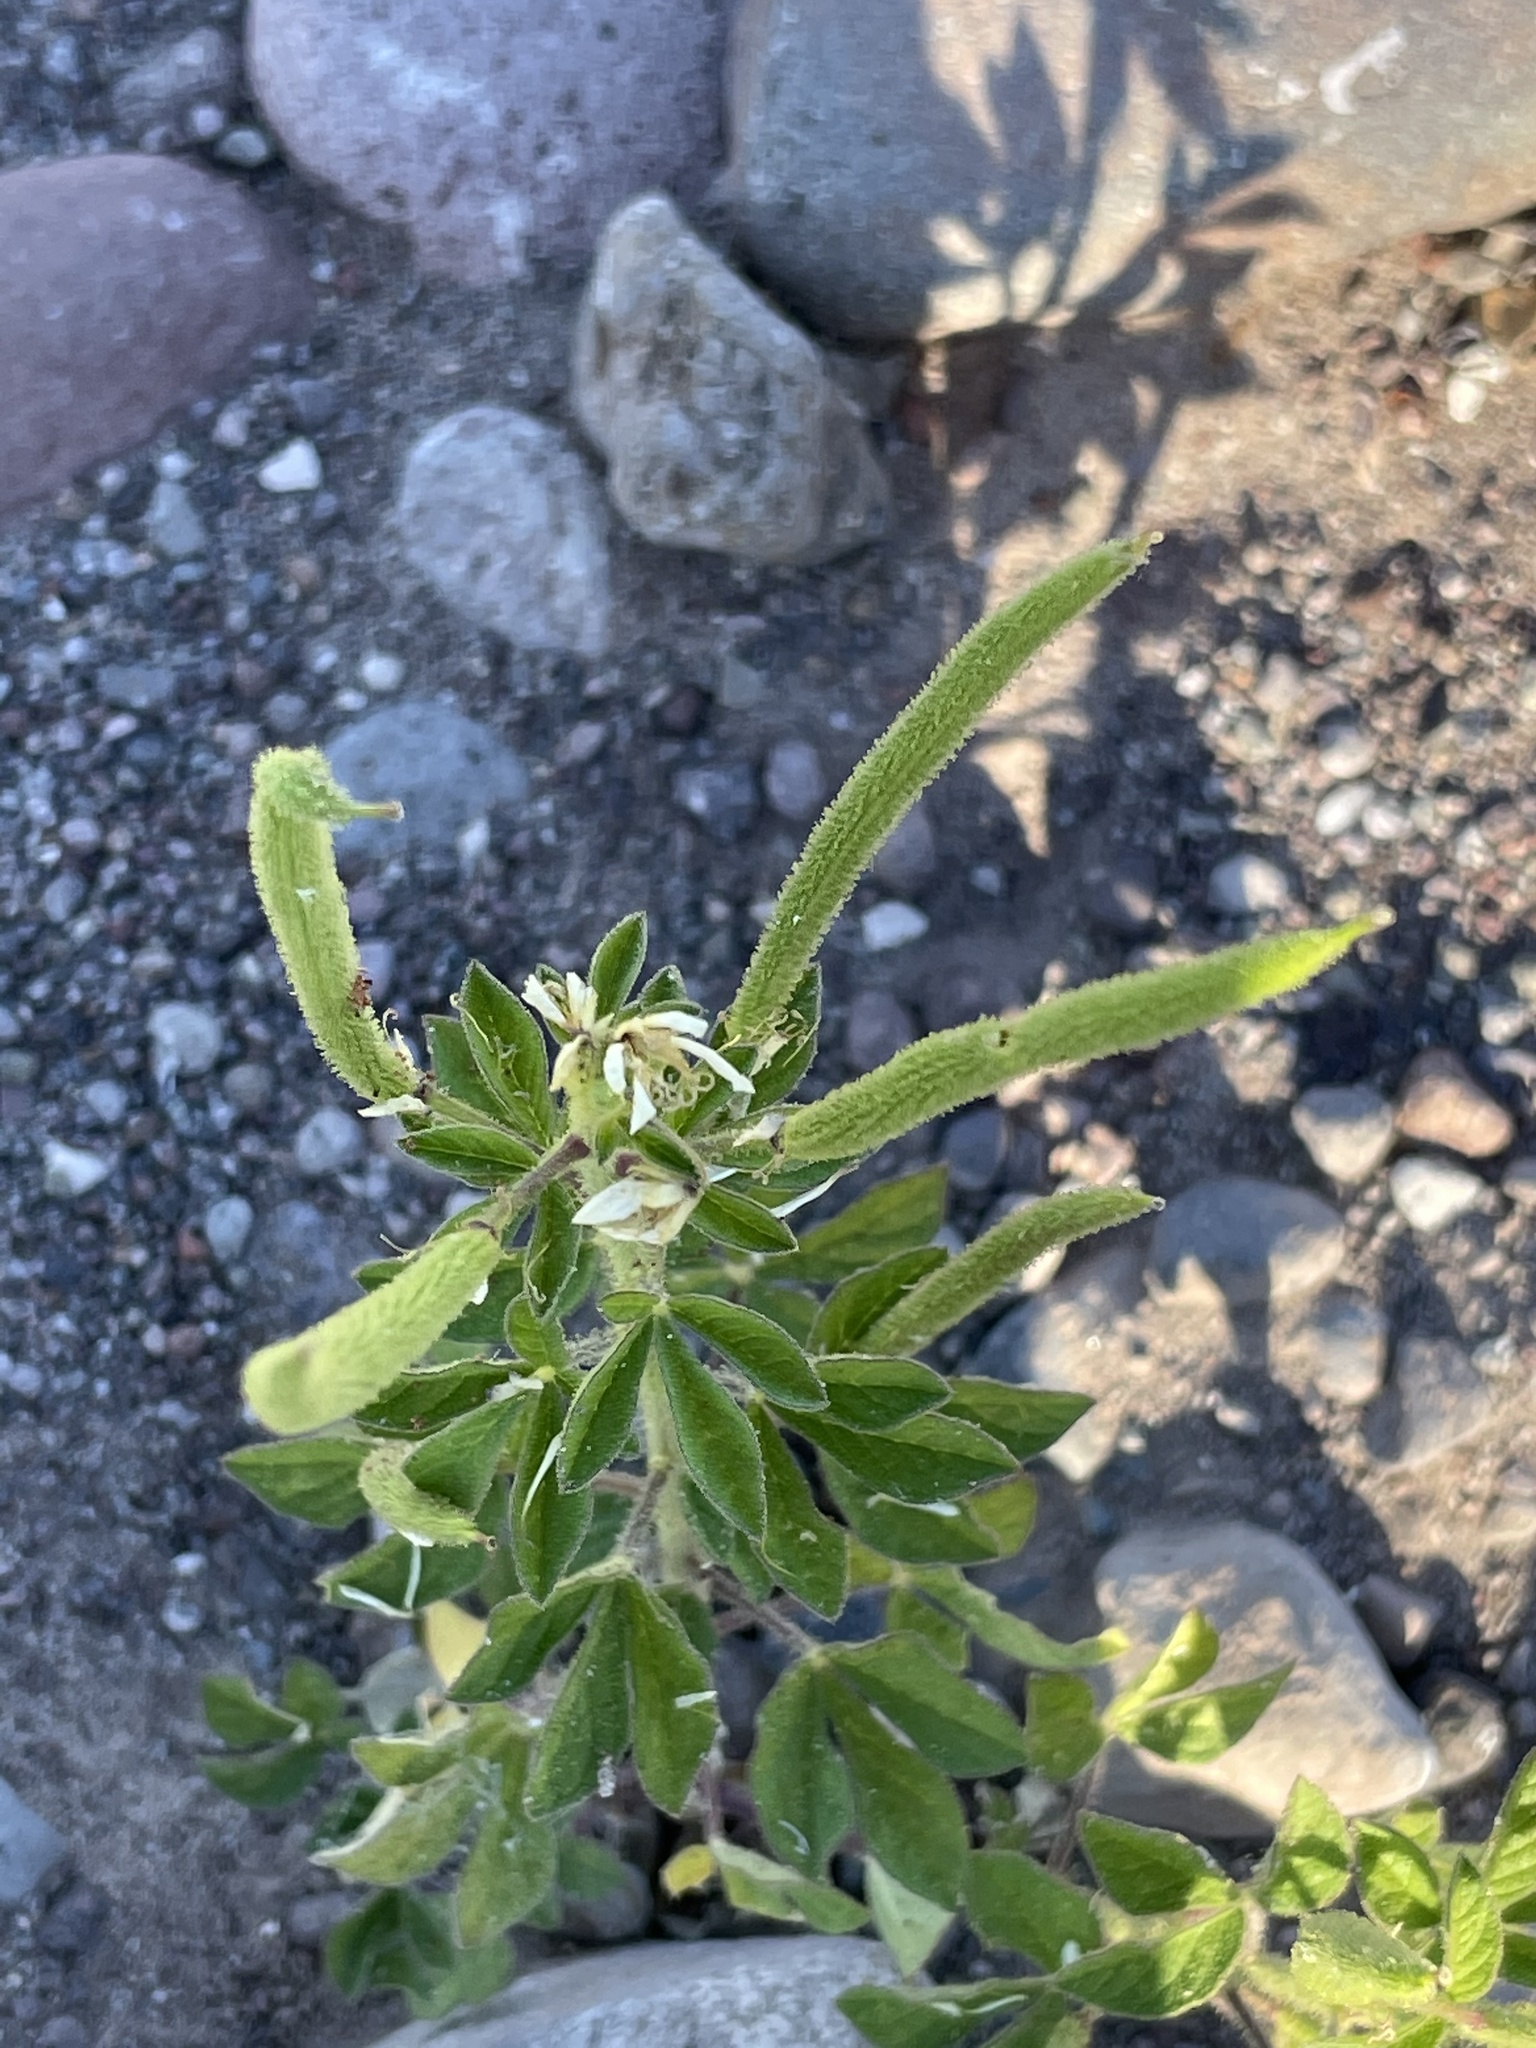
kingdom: Plantae
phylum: Tracheophyta
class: Magnoliopsida
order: Brassicales
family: Cleomaceae
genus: Arivela
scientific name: Arivela viscosa
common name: Asian spiderflower
